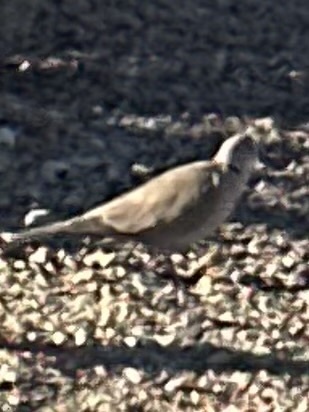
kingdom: Animalia
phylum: Chordata
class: Aves
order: Columbiformes
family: Columbidae
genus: Streptopelia
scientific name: Streptopelia decaocto
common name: Eurasian collared dove
